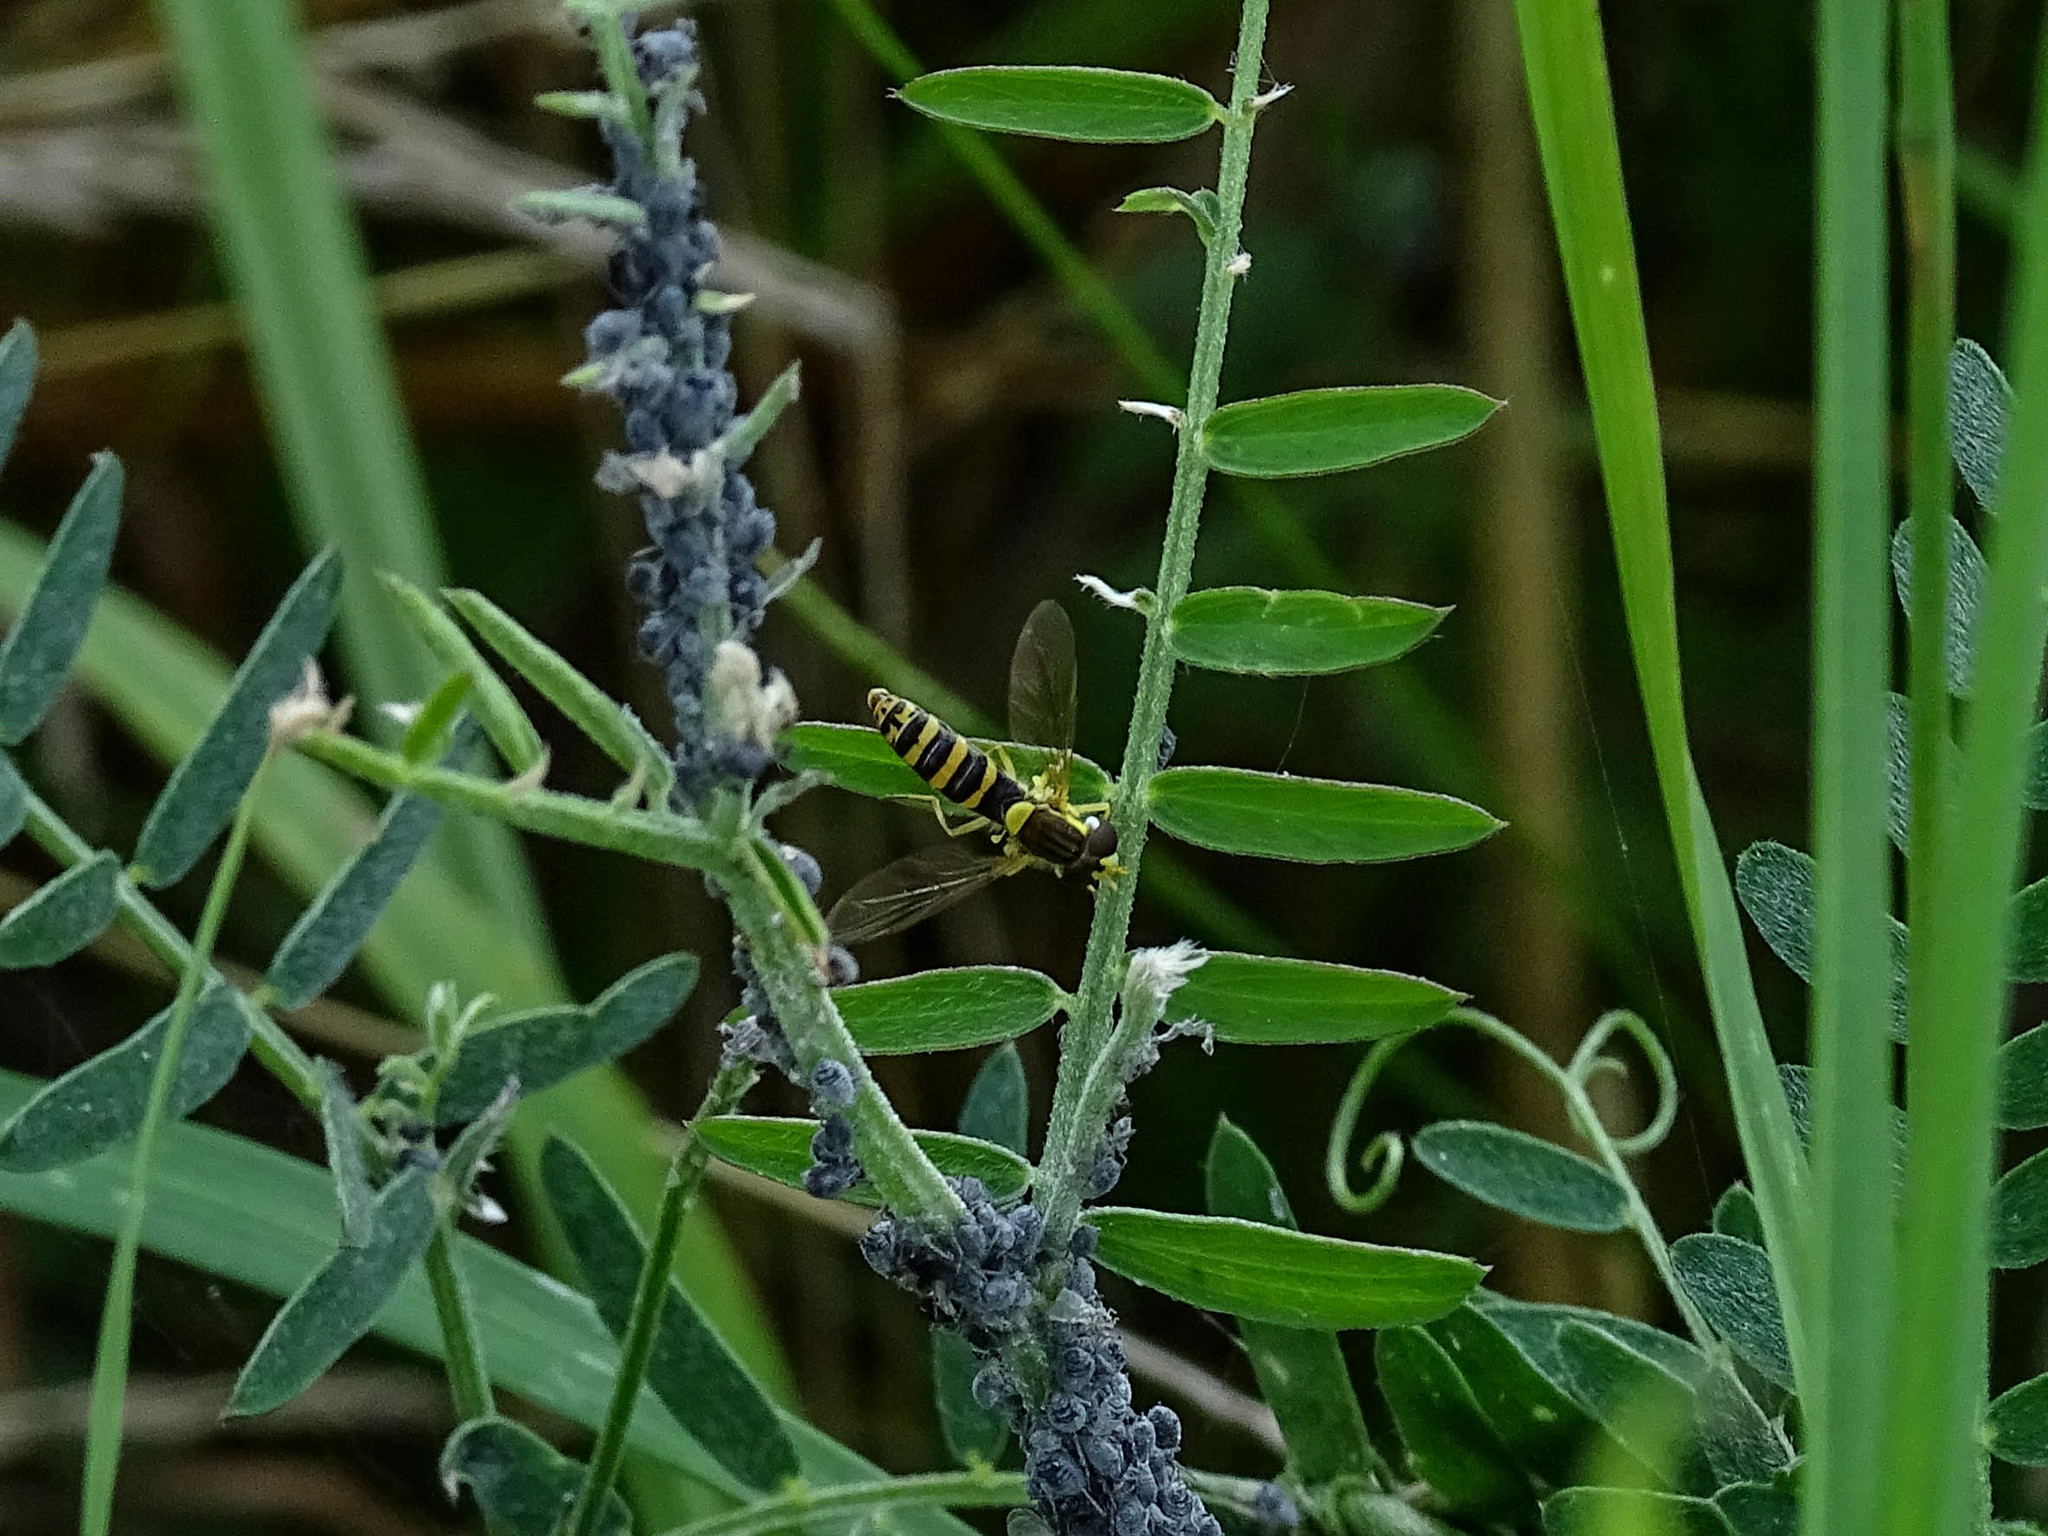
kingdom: Animalia
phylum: Arthropoda
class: Insecta
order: Diptera
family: Syrphidae
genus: Sphaerophoria
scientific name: Sphaerophoria
